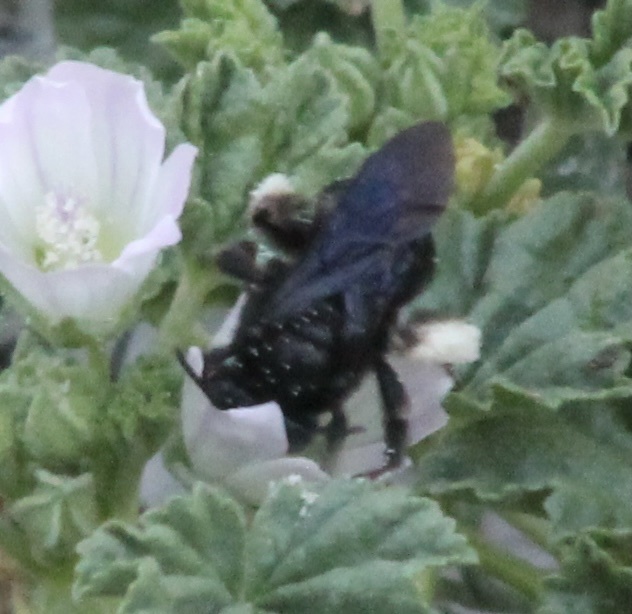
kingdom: Animalia
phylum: Arthropoda
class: Insecta
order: Hymenoptera
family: Apidae
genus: Melissodes
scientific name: Melissodes bimaculatus
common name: Two-spotted long-horned bee
